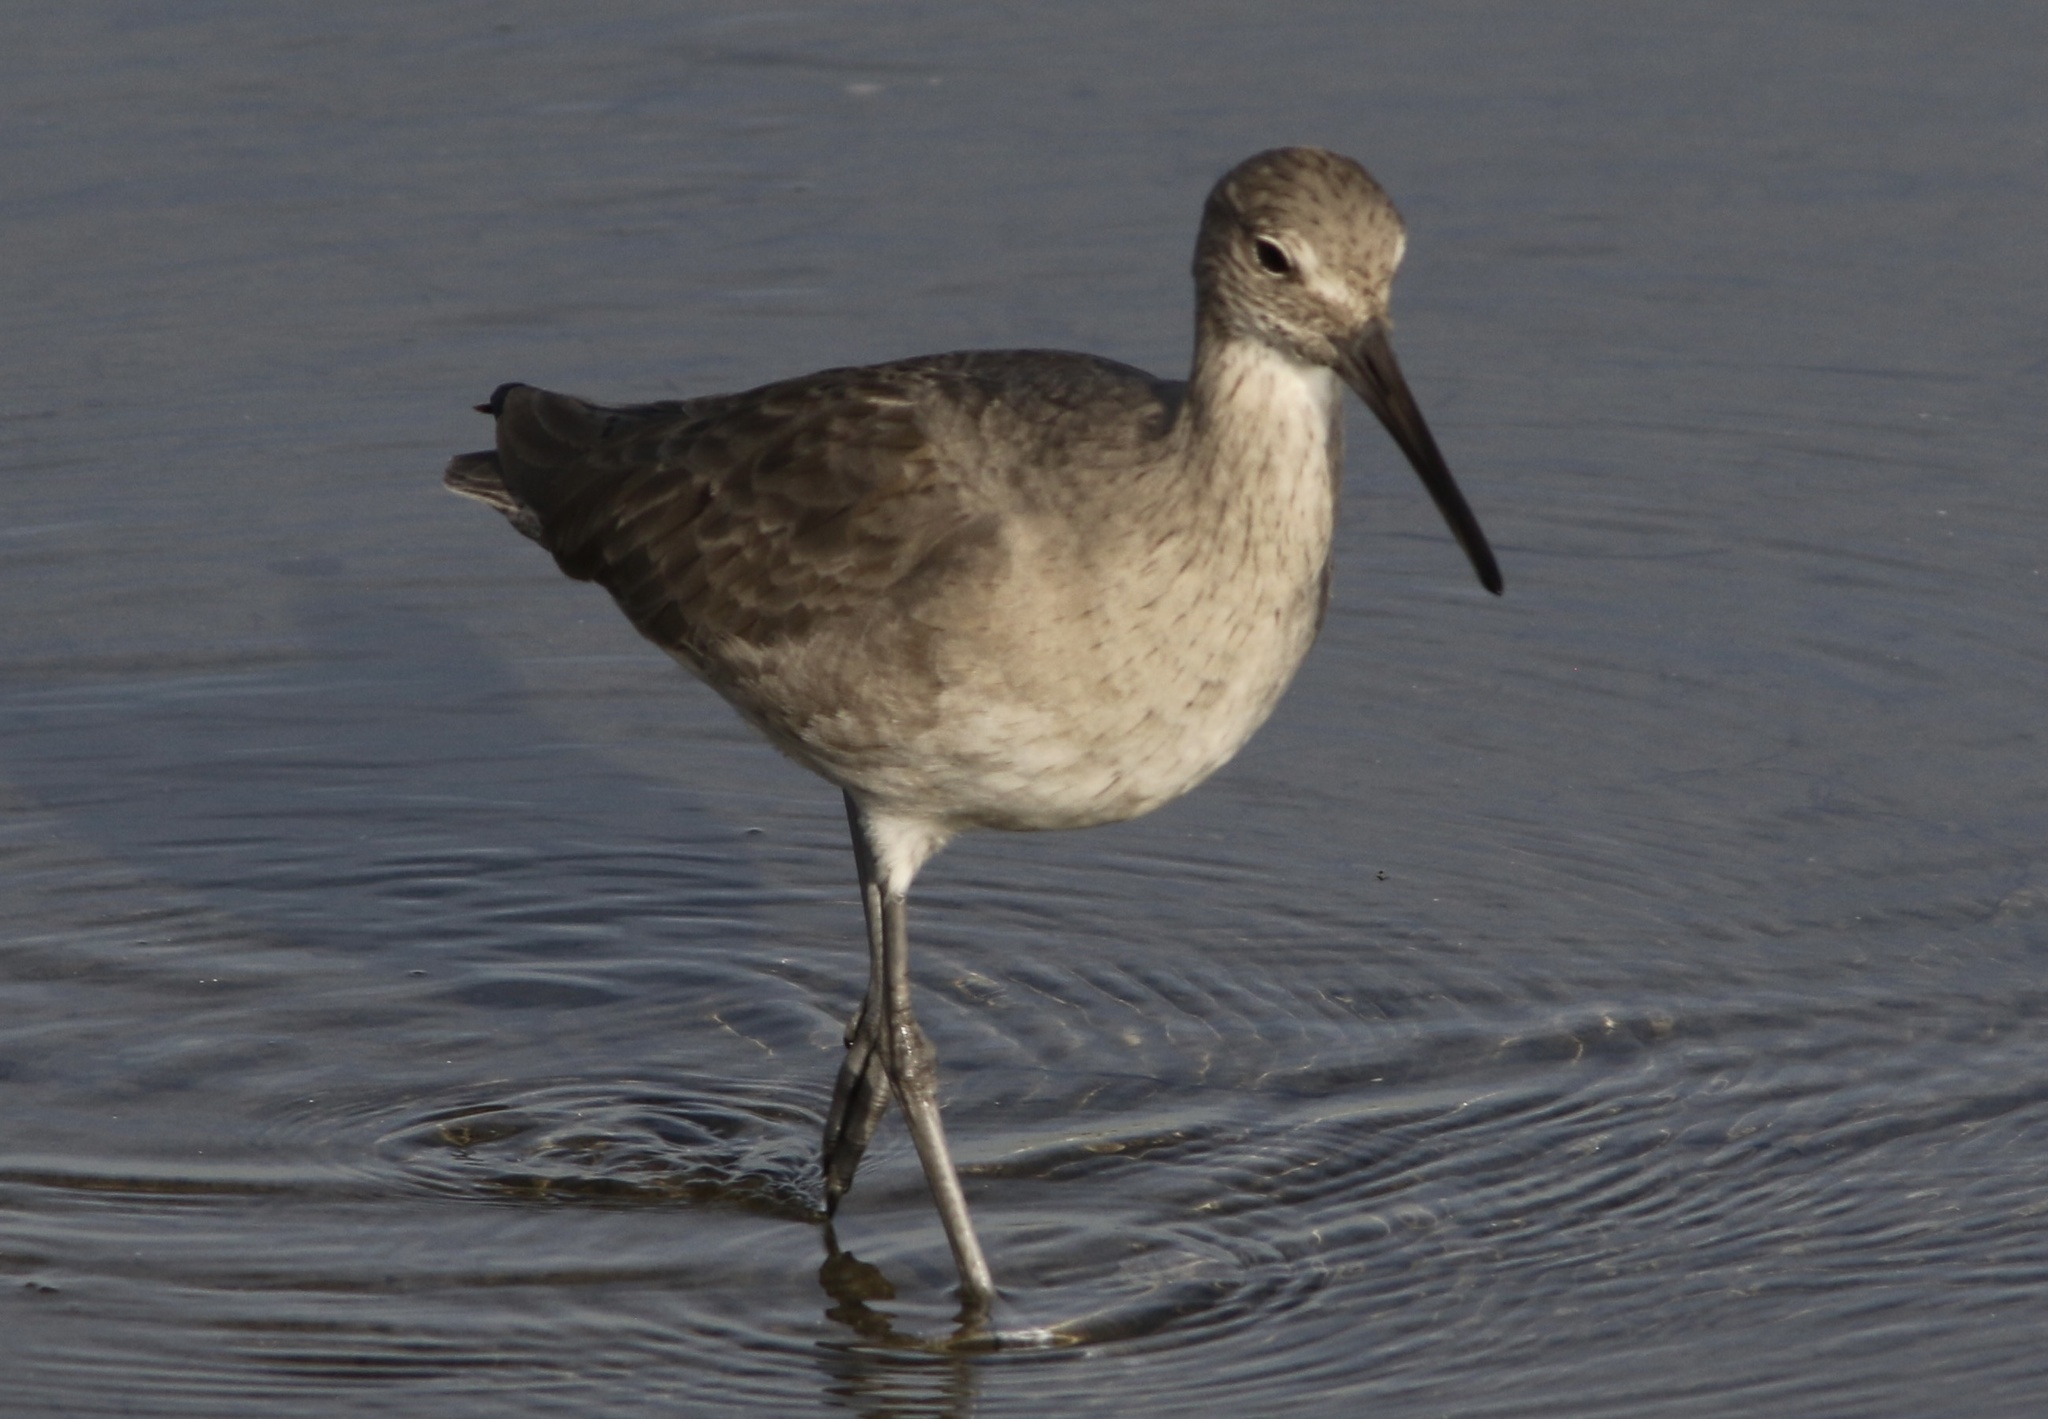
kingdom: Animalia
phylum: Chordata
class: Aves
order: Charadriiformes
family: Scolopacidae
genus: Tringa
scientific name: Tringa semipalmata
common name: Willet
